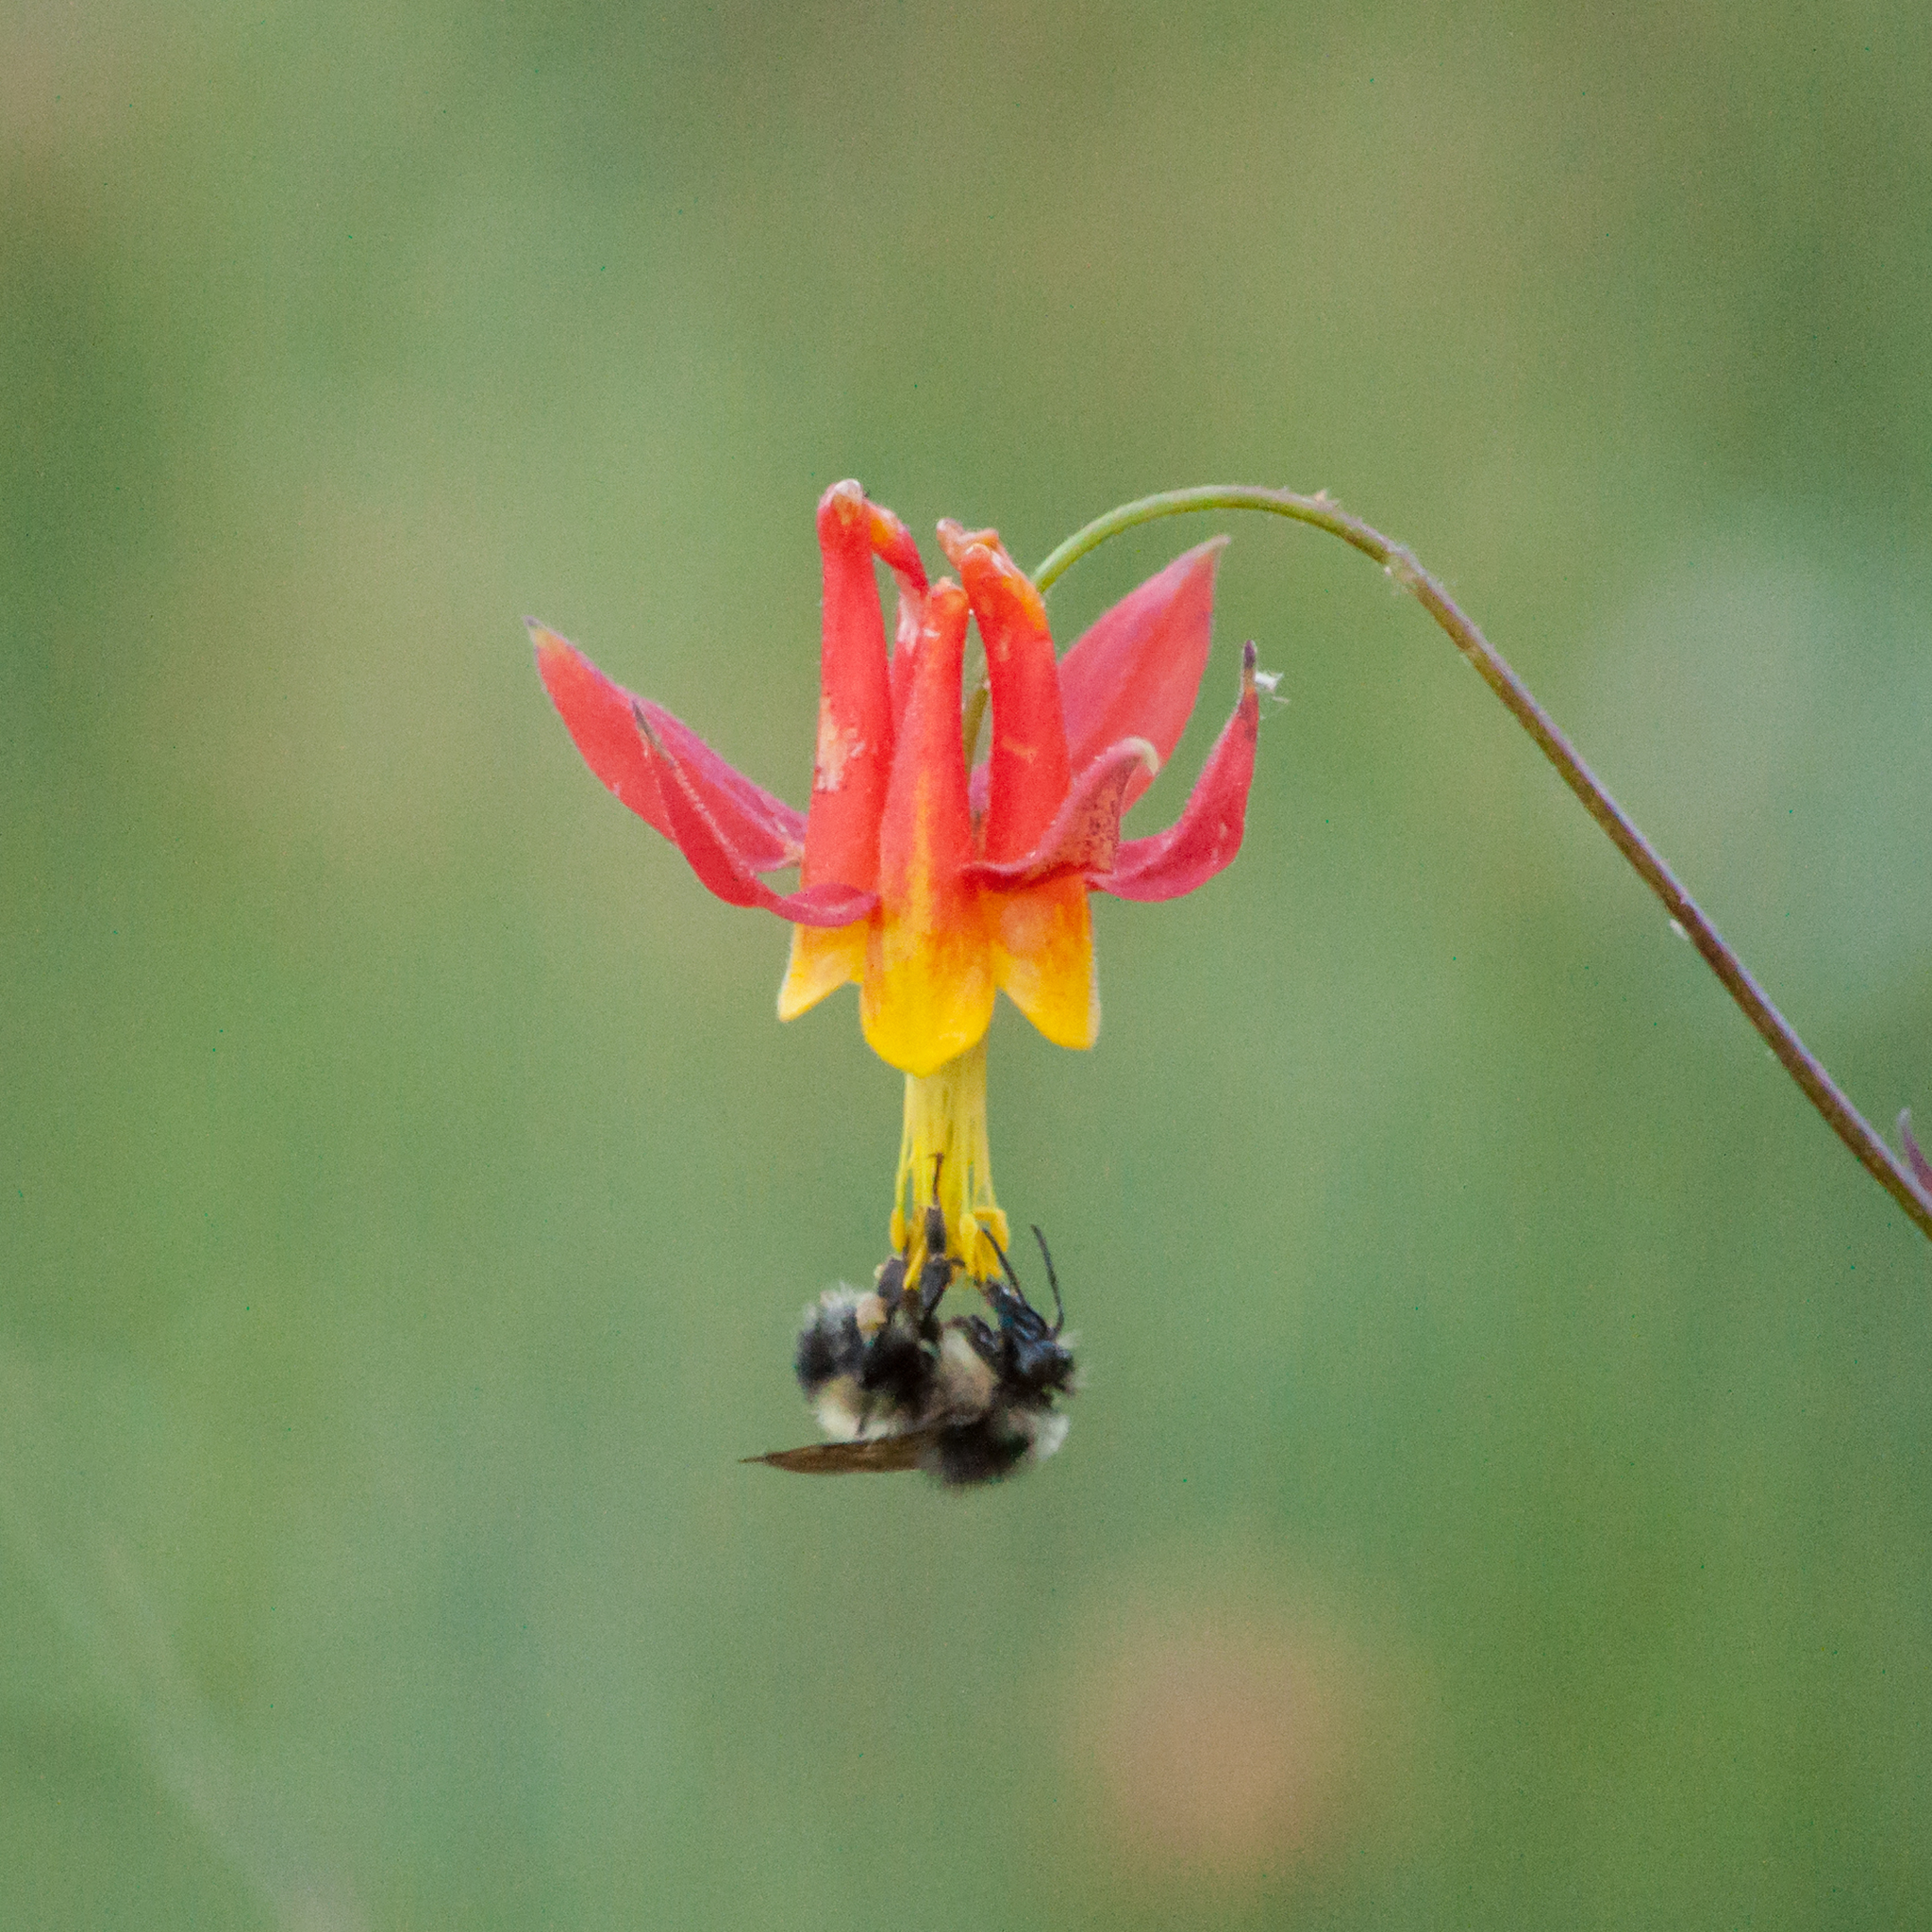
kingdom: Plantae
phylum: Tracheophyta
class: Magnoliopsida
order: Ranunculales
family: Ranunculaceae
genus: Aquilegia
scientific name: Aquilegia formosa
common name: Sitka columbine
